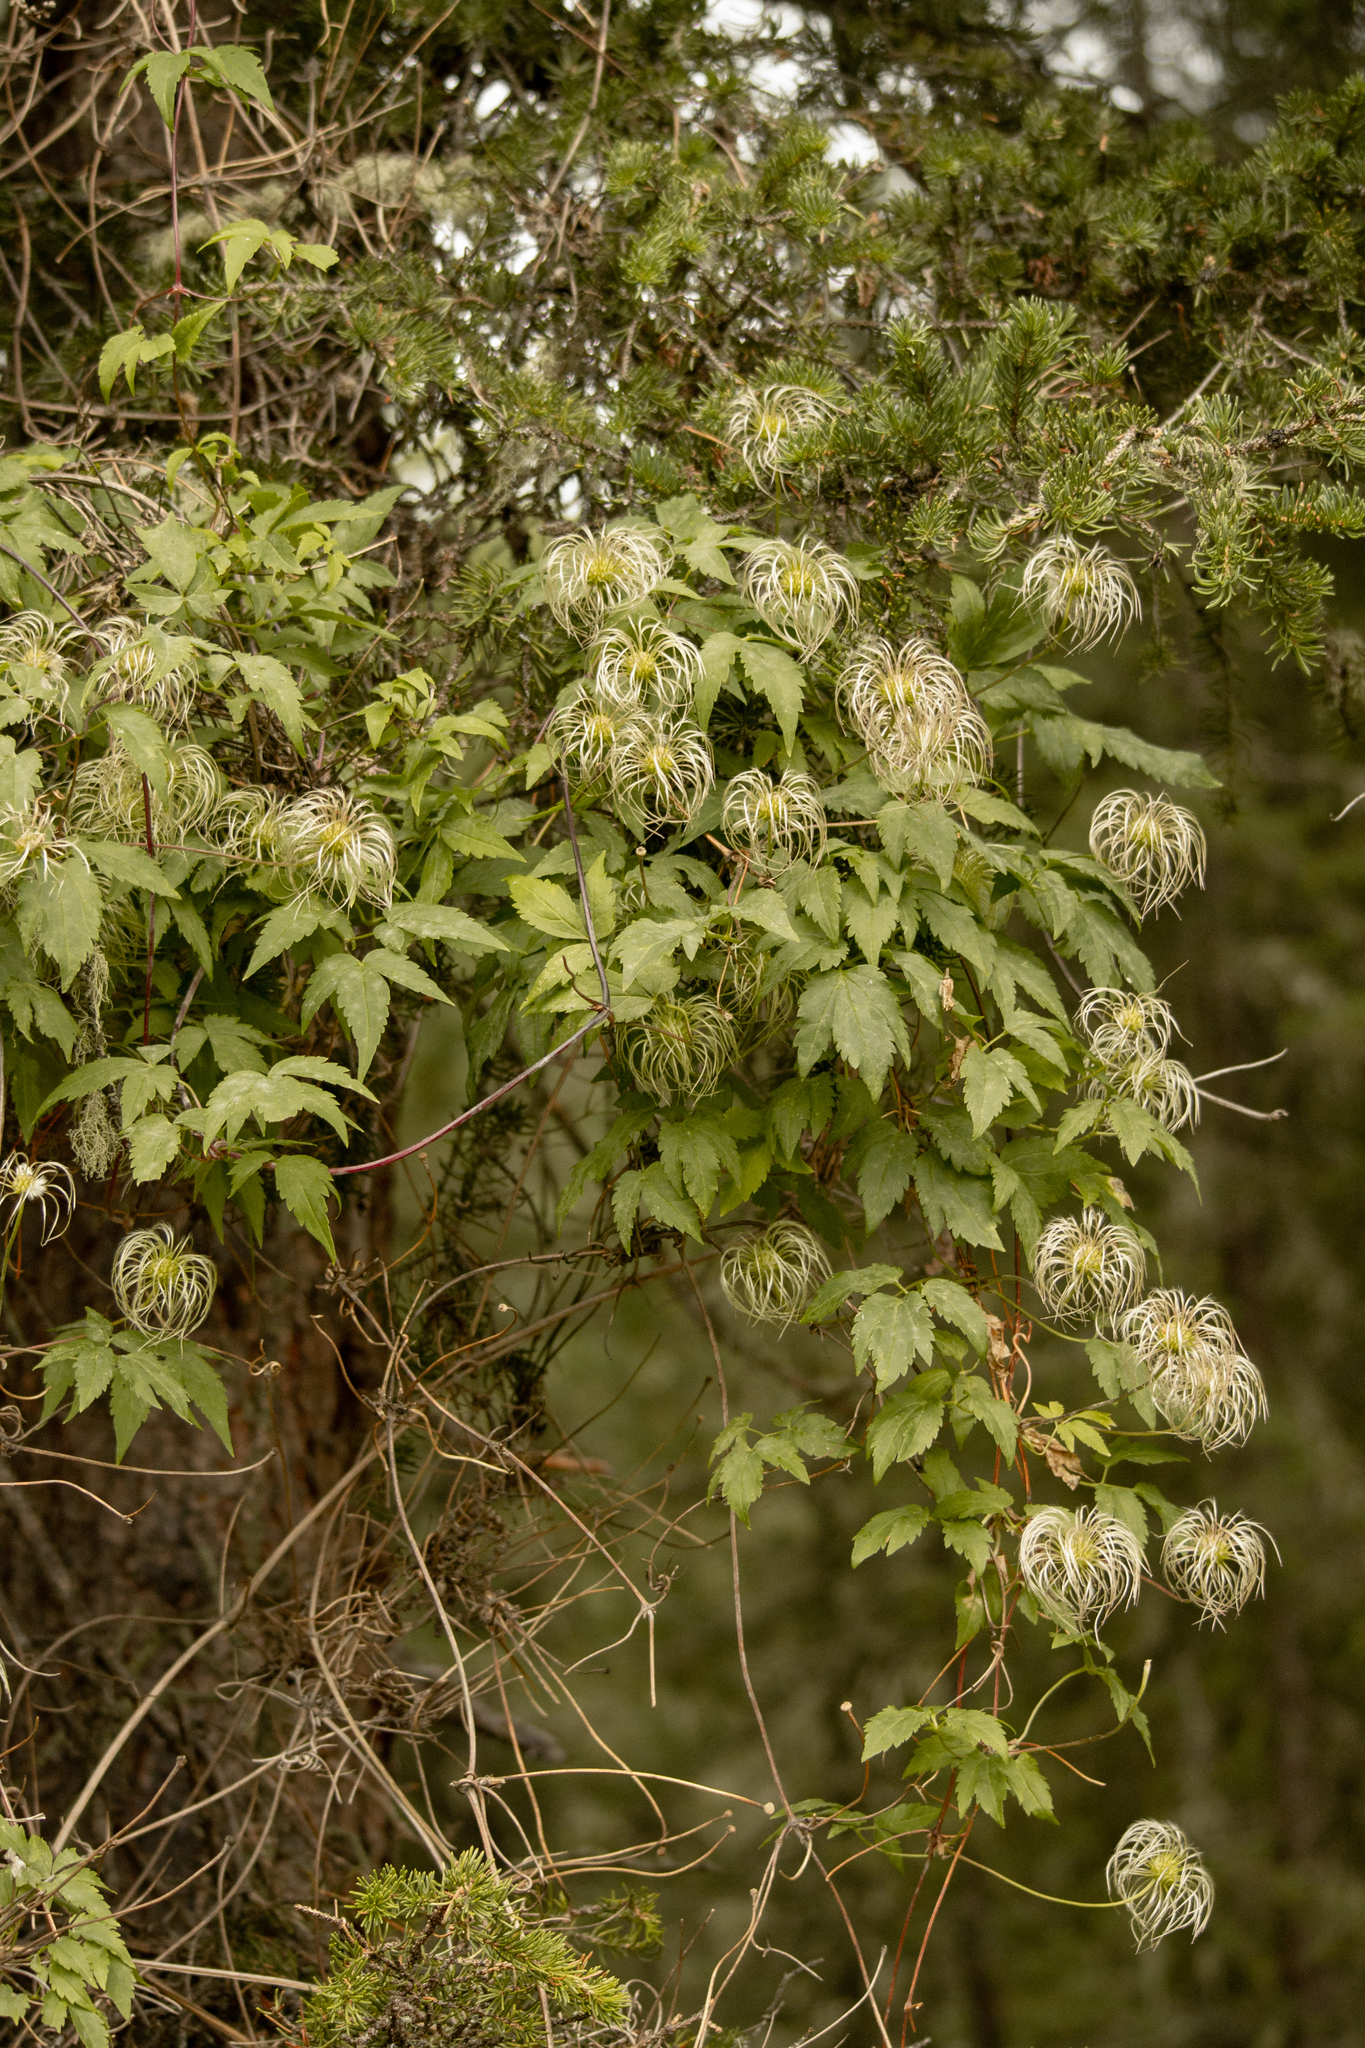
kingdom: Plantae
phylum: Tracheophyta
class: Magnoliopsida
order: Ranunculales
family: Ranunculaceae
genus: Clematis
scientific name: Clematis sibirica
